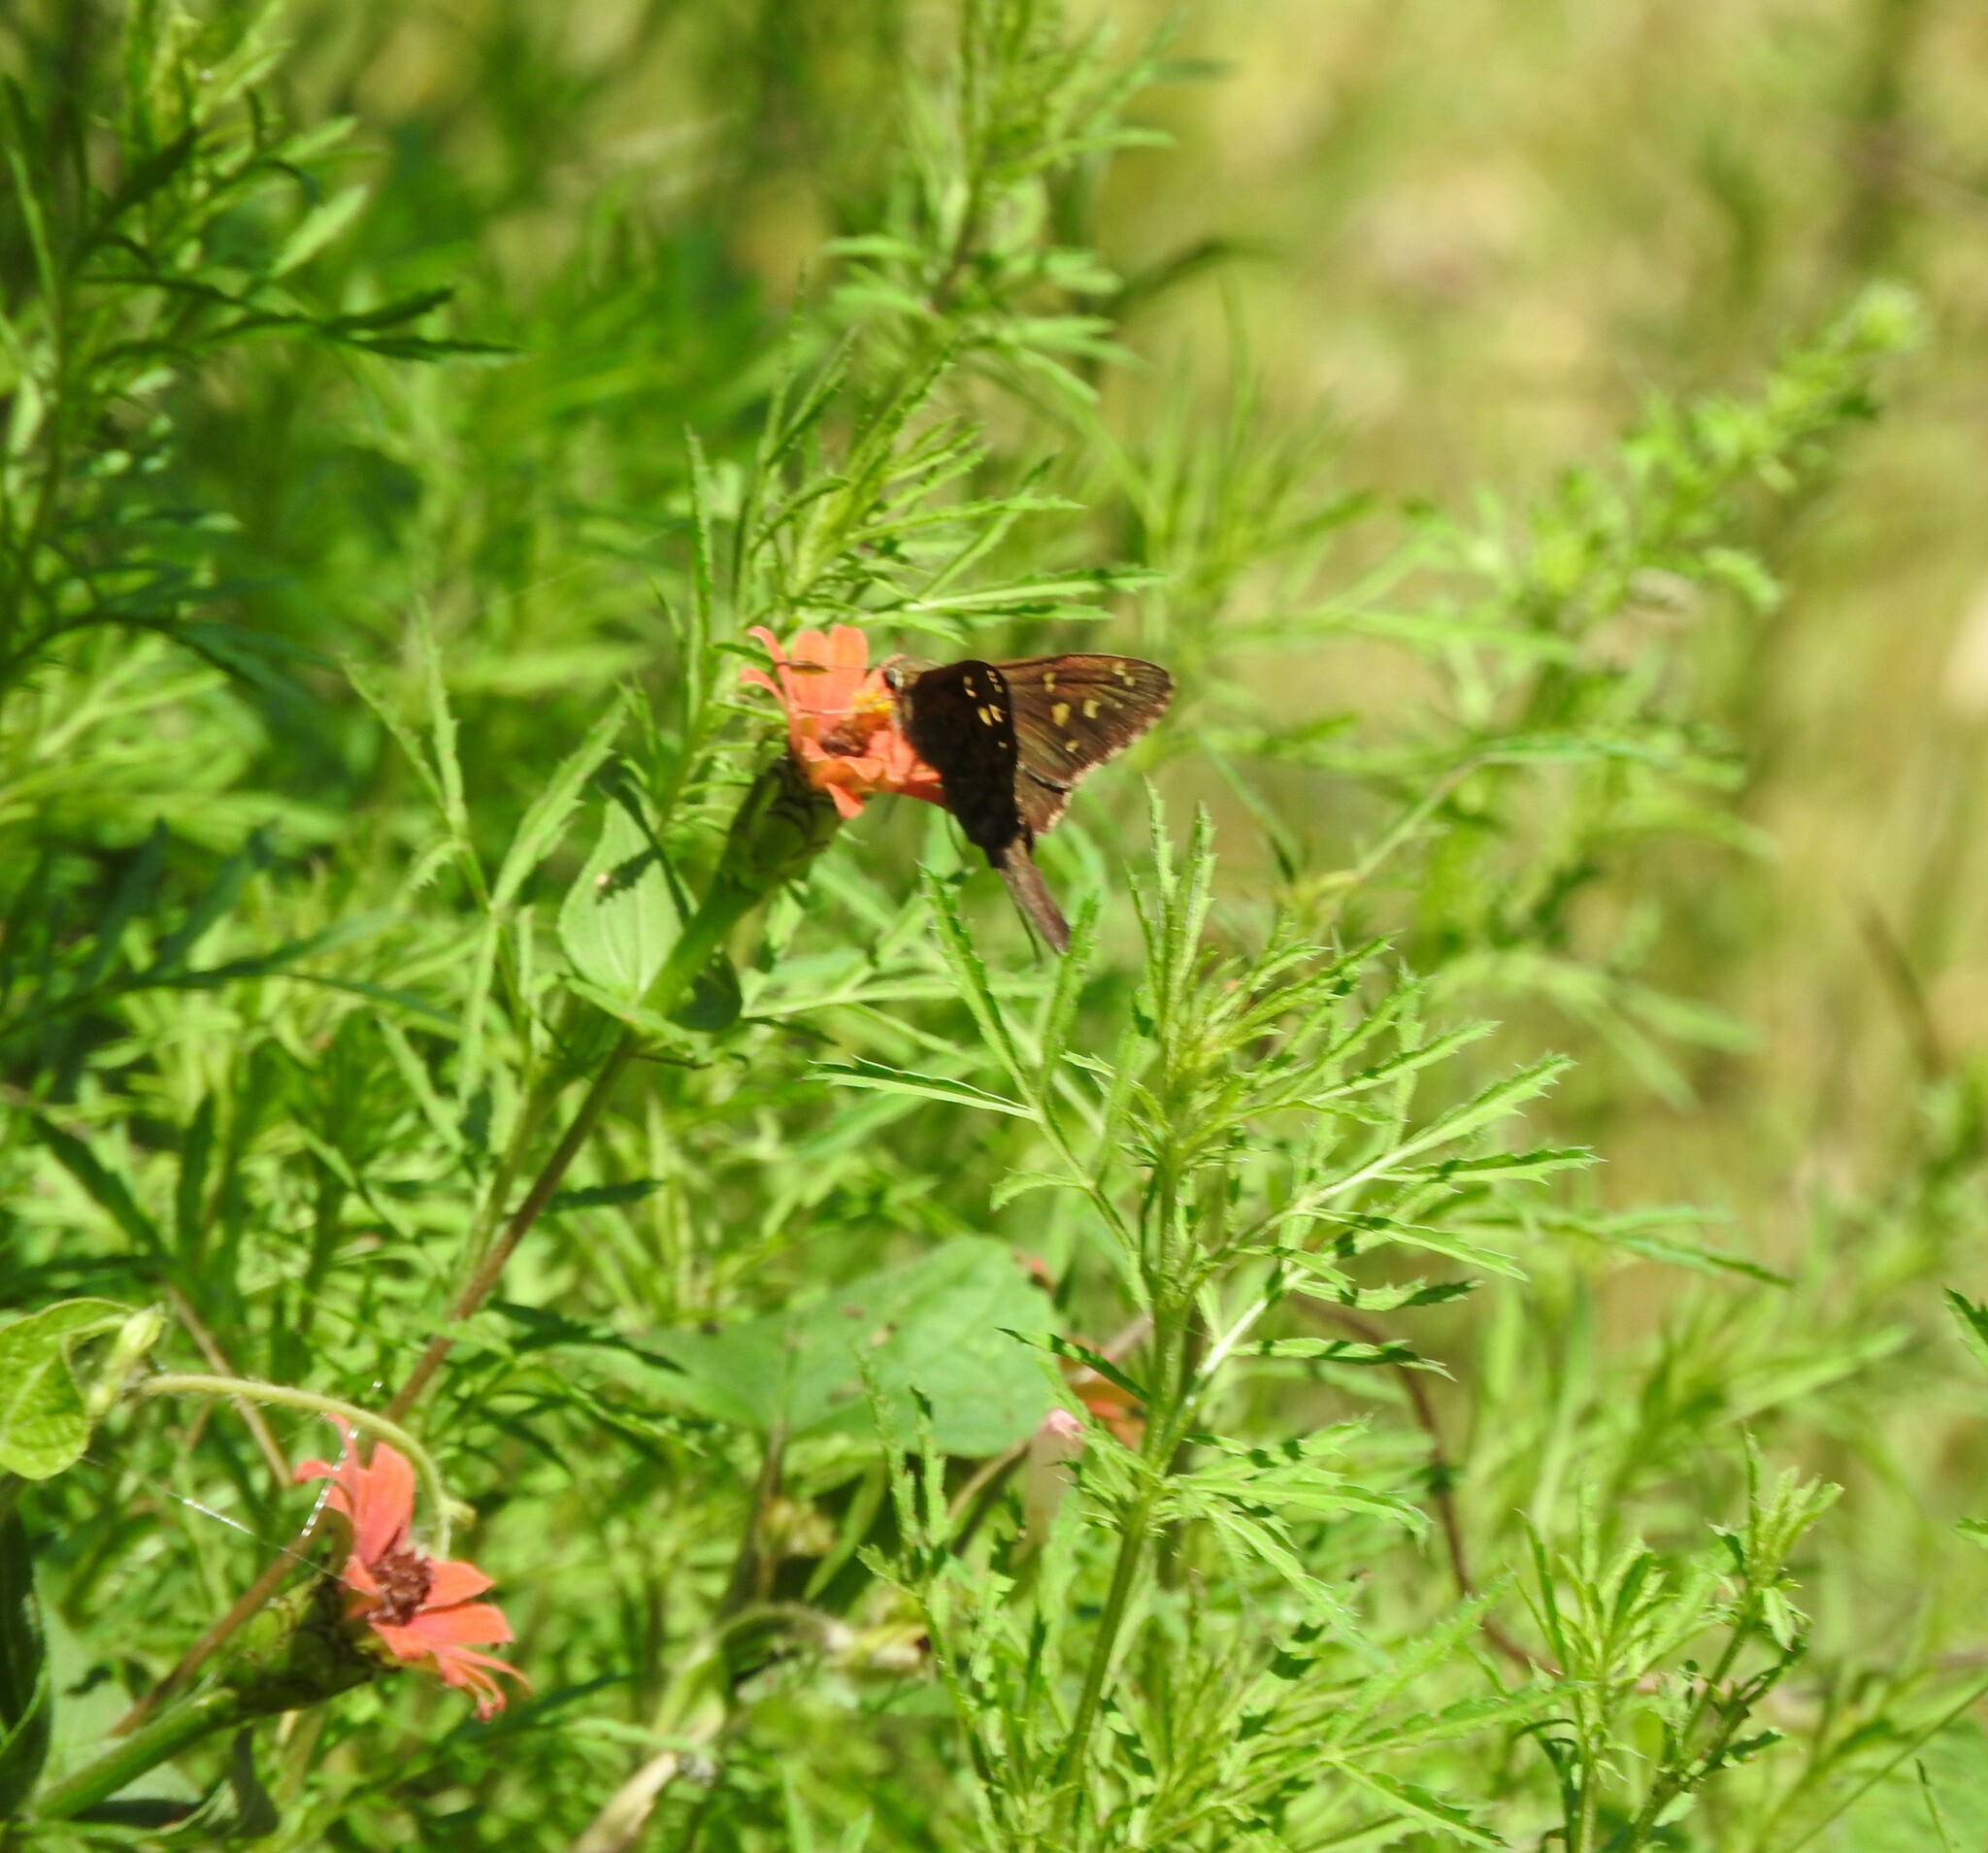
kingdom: Animalia
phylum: Arthropoda
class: Insecta
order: Lepidoptera
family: Hesperiidae
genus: Thorybes
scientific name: Thorybes
